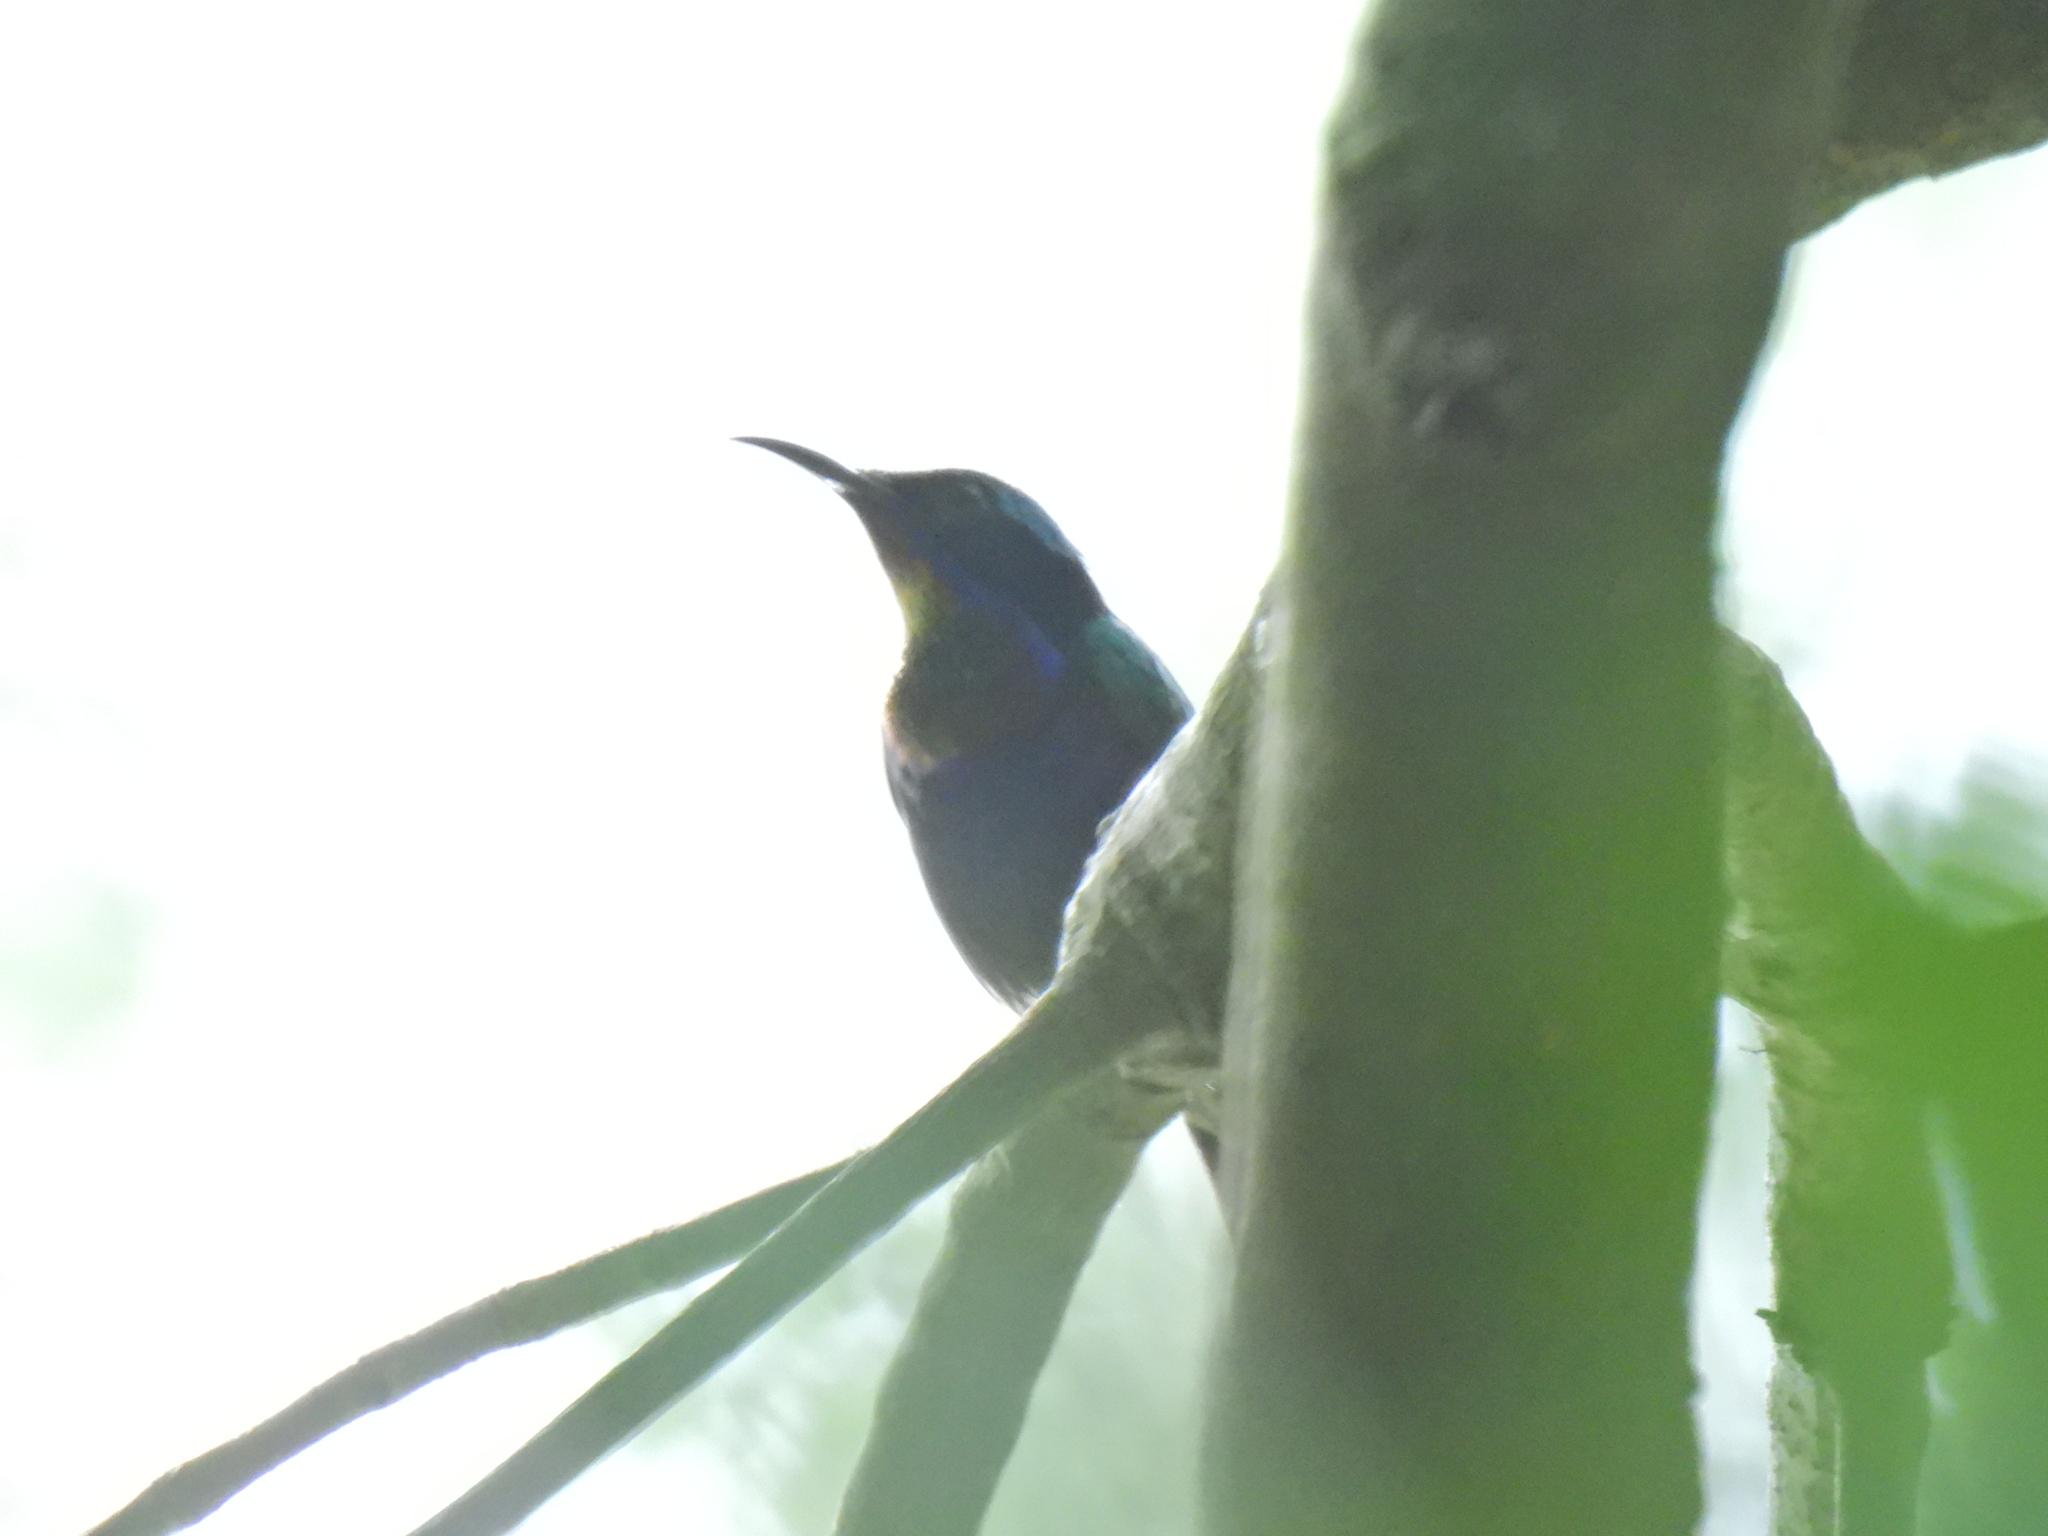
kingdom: Animalia
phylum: Chordata
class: Aves
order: Passeriformes
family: Nectariniidae
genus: Leptocoma
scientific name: Leptocoma calcostetha
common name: Copper-throated sunbird
